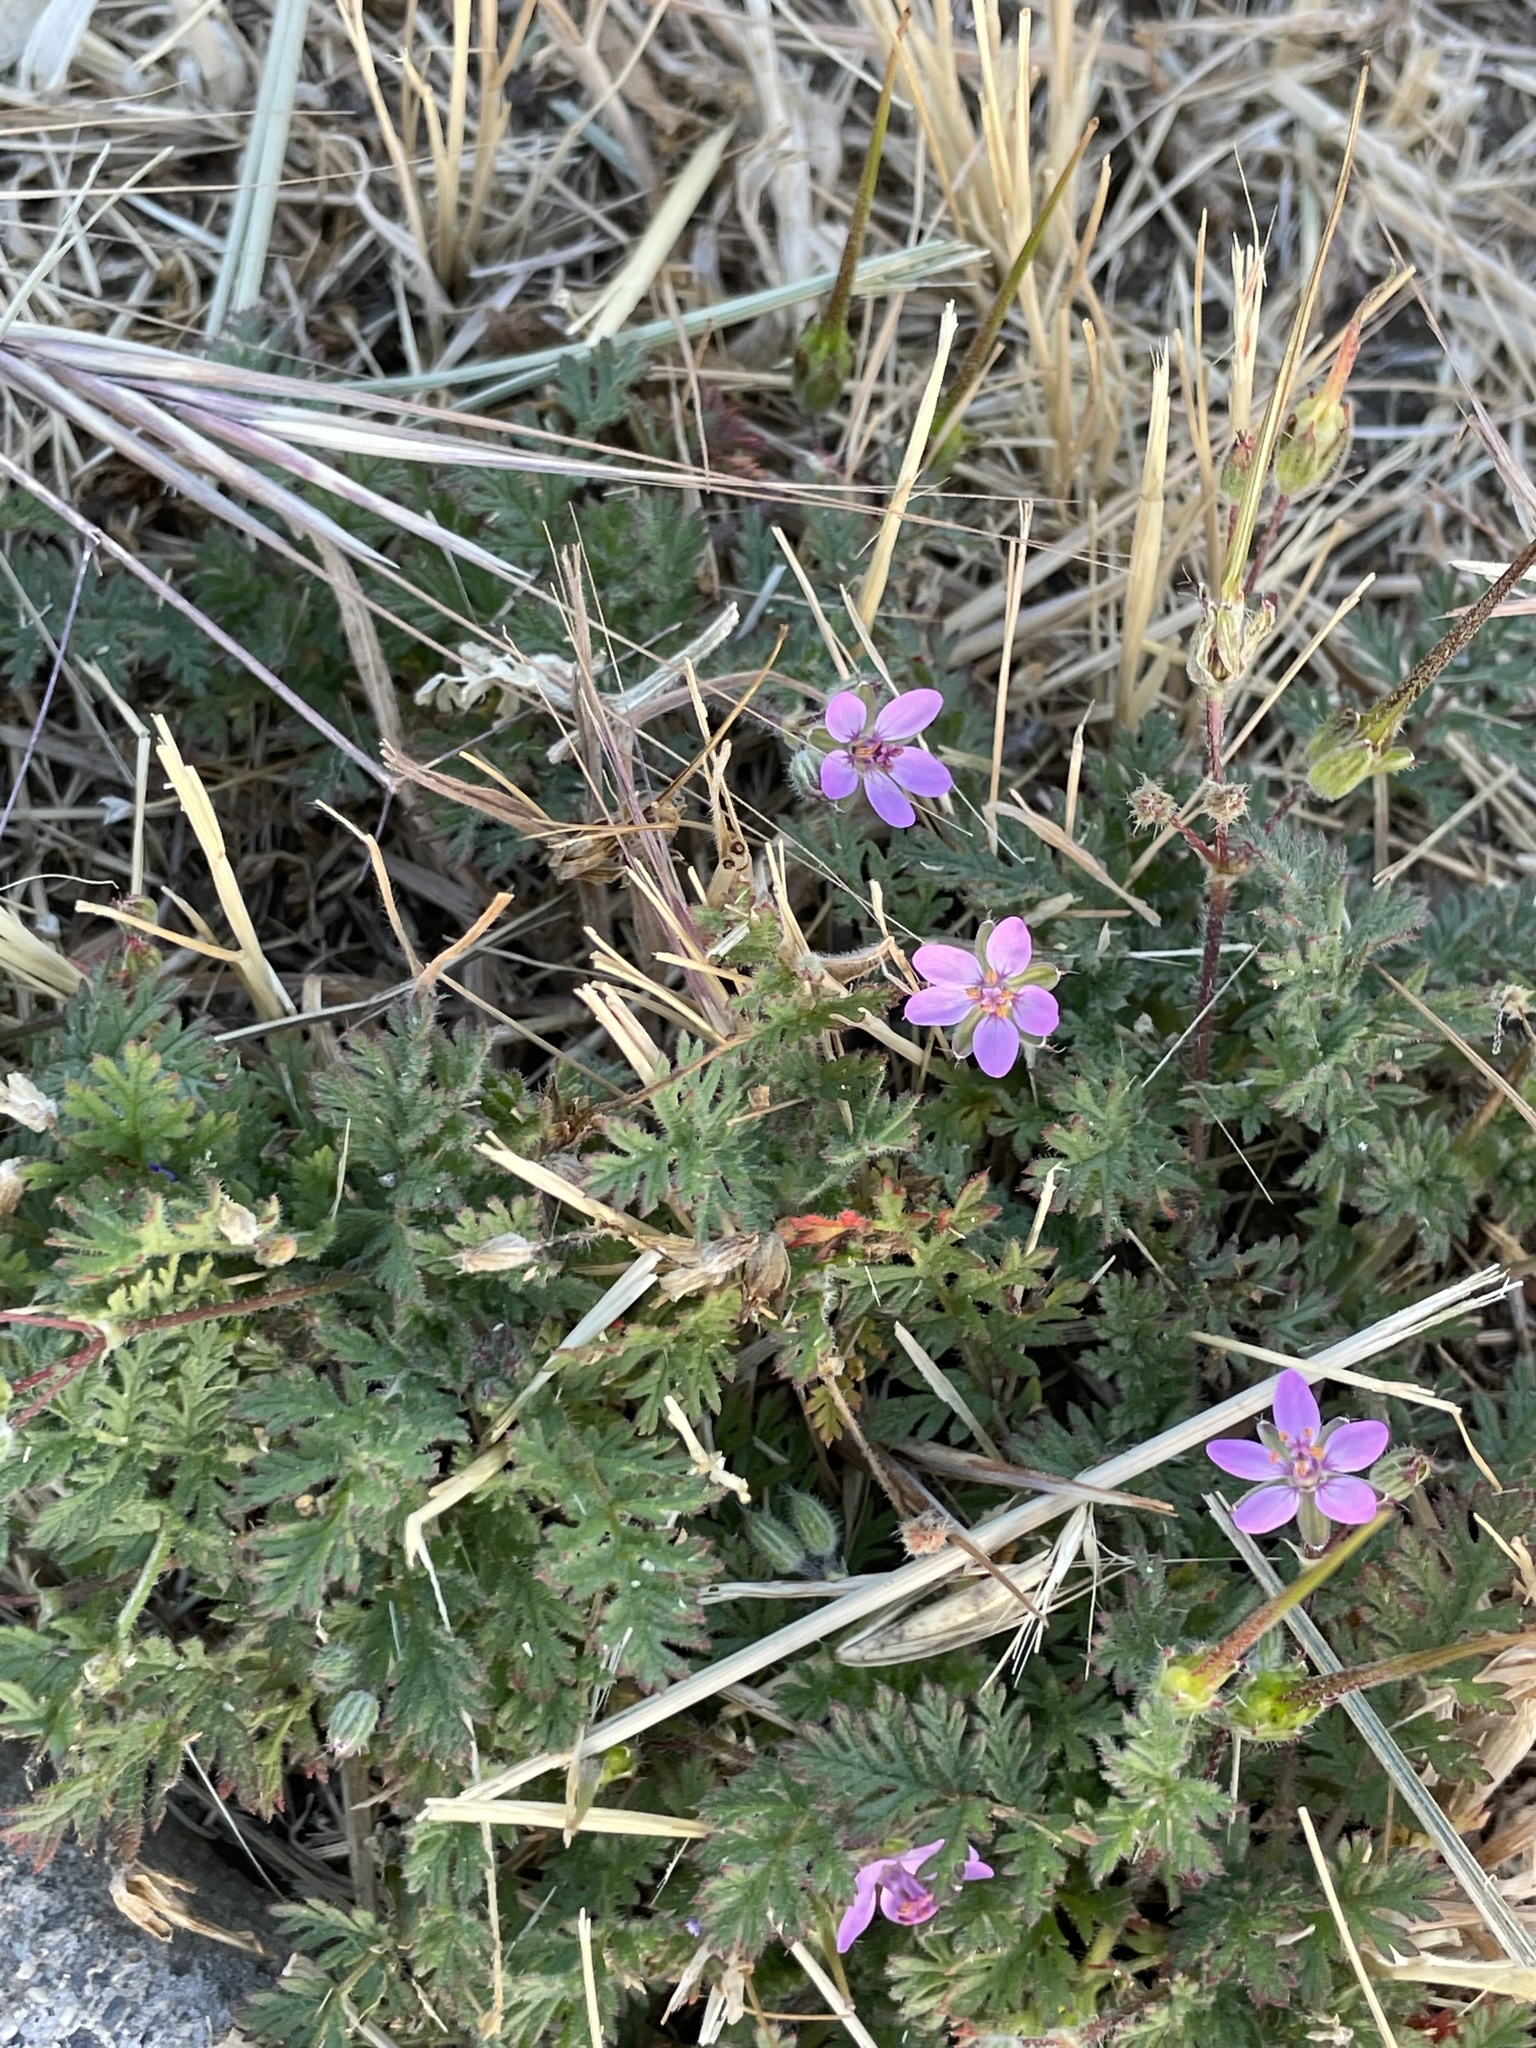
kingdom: Plantae
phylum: Tracheophyta
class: Magnoliopsida
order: Geraniales
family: Geraniaceae
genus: Erodium
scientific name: Erodium cicutarium
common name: Common stork's-bill
